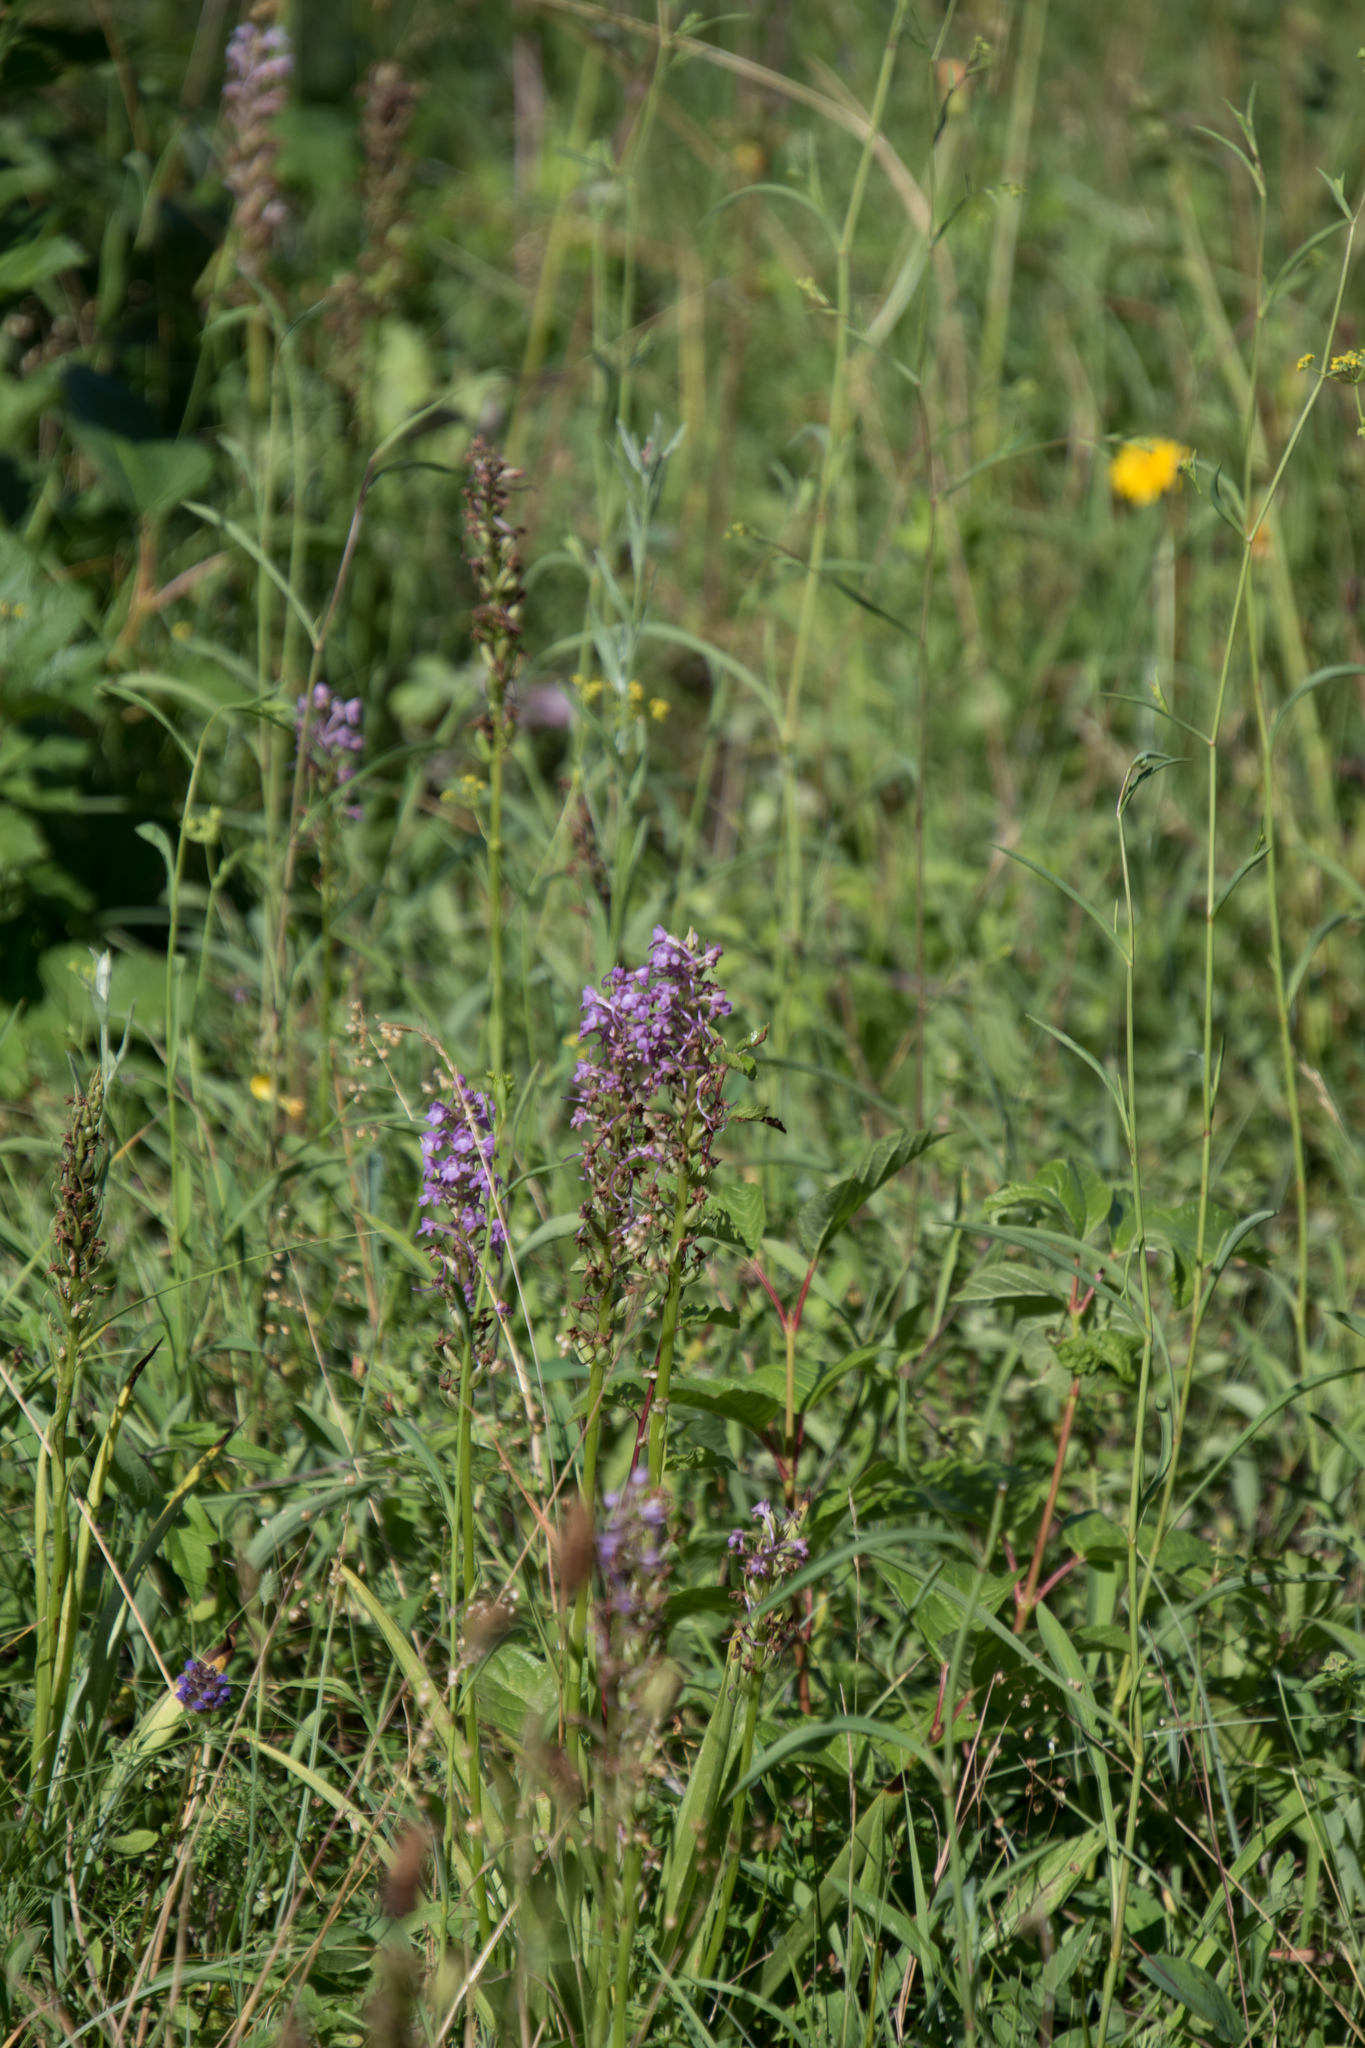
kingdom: Plantae
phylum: Tracheophyta
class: Liliopsida
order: Asparagales
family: Orchidaceae
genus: Gymnadenia
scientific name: Gymnadenia conopsea
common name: Fragrant orchid
